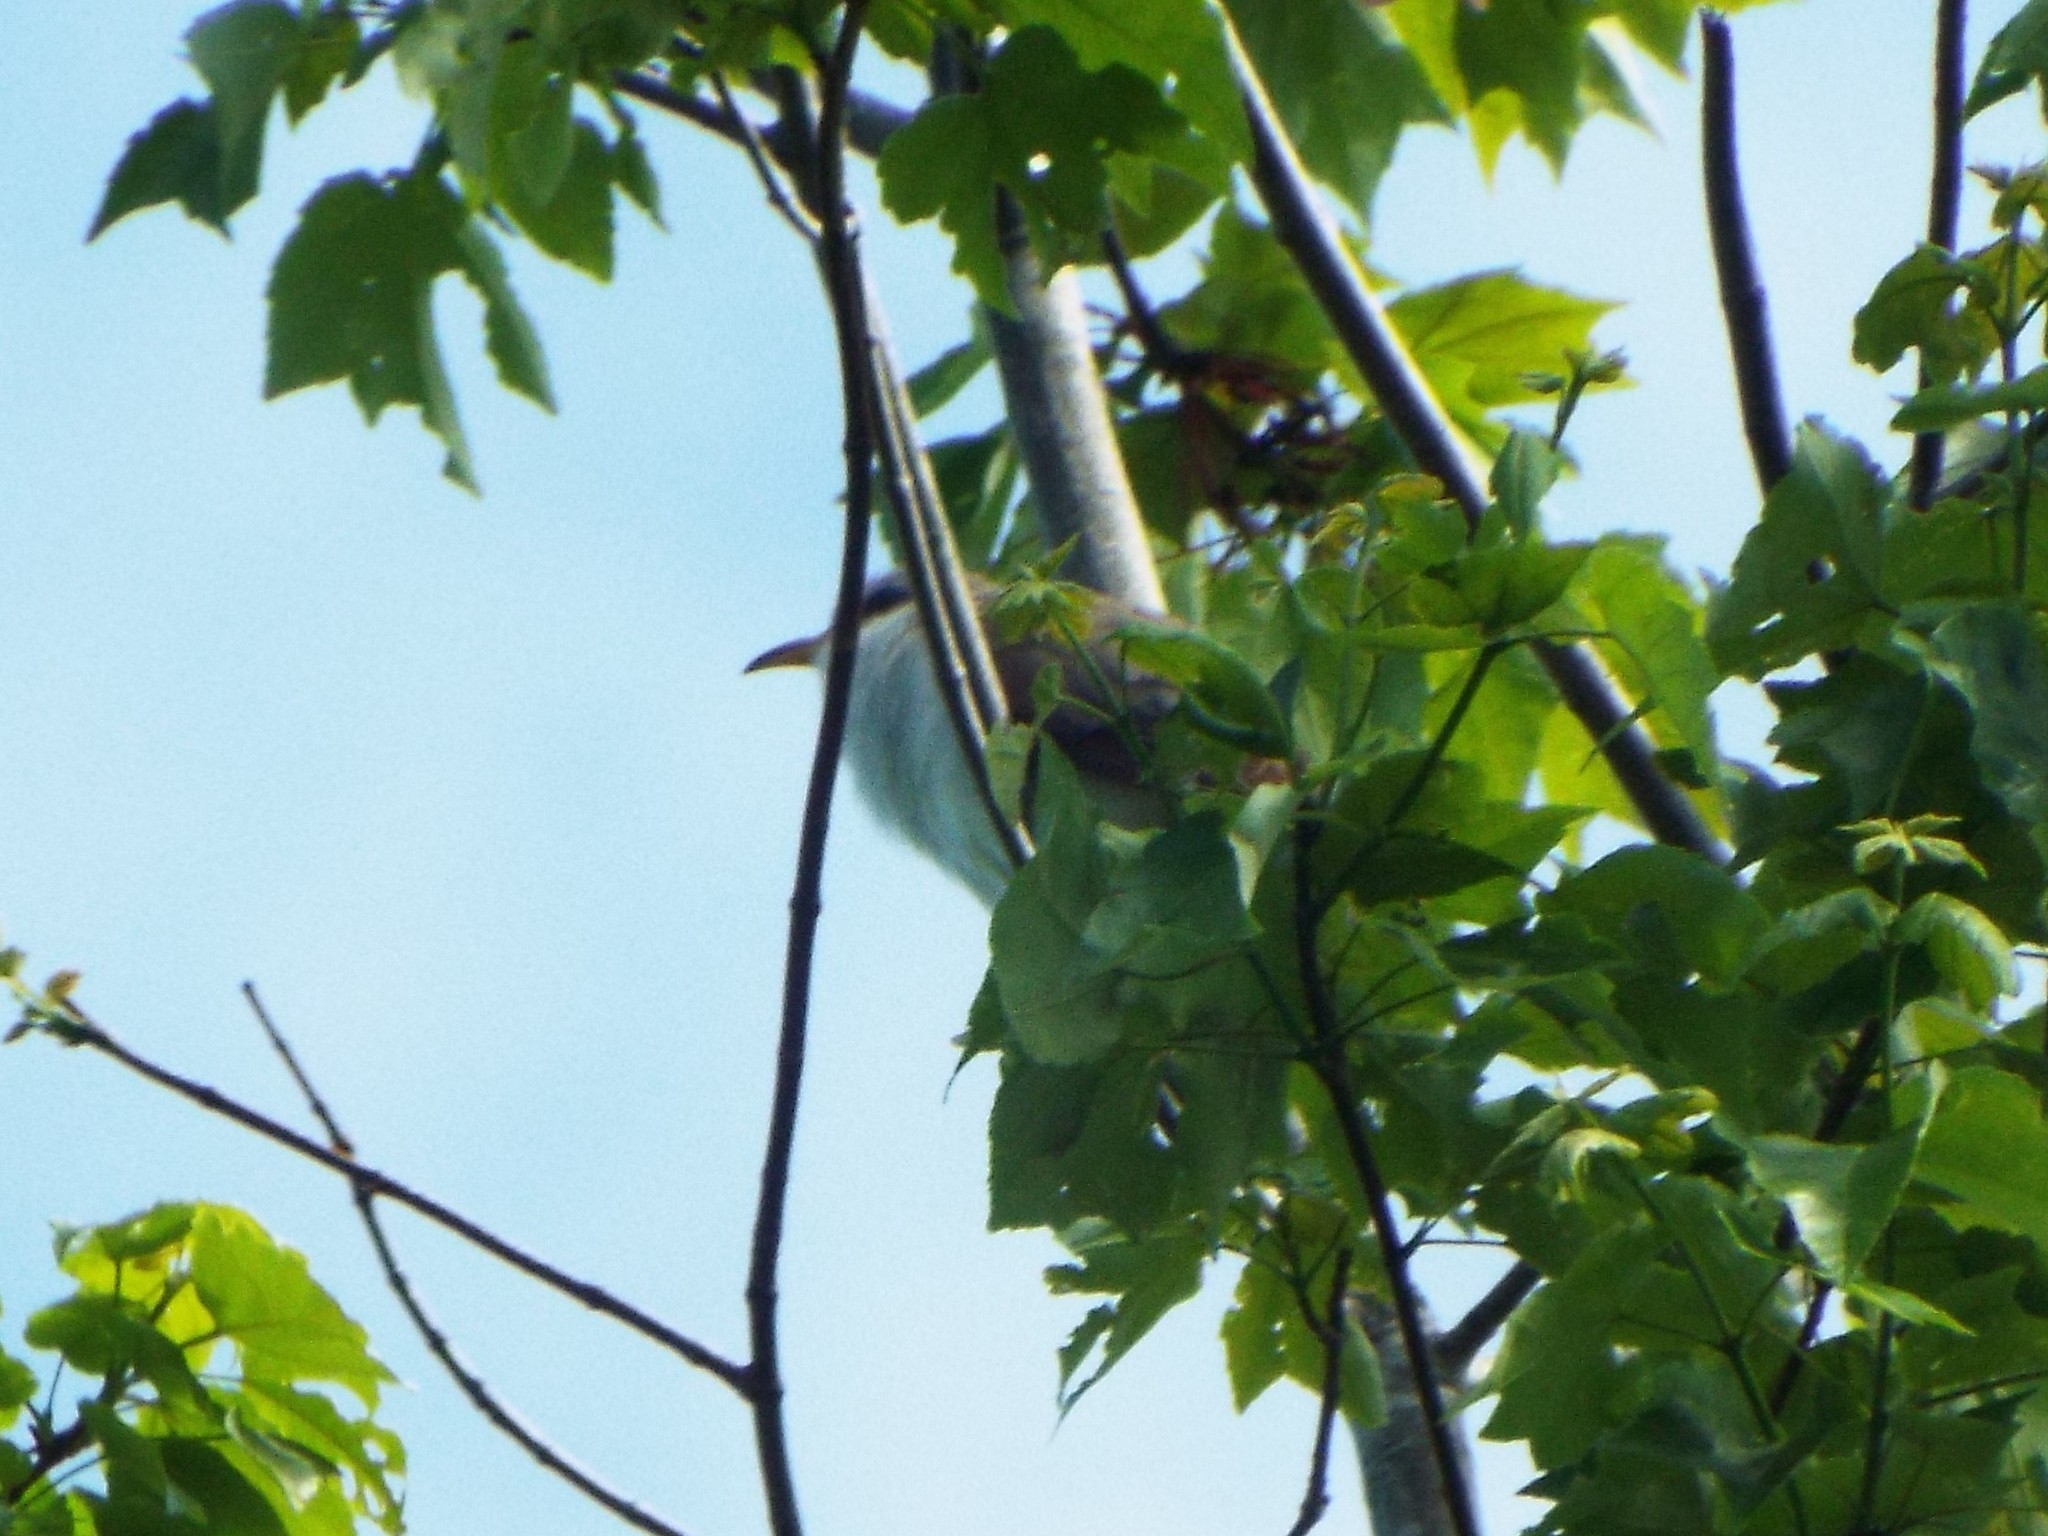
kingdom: Animalia
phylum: Chordata
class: Aves
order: Cuculiformes
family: Cuculidae
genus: Coccyzus
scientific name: Coccyzus americanus
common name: Yellow-billed cuckoo
